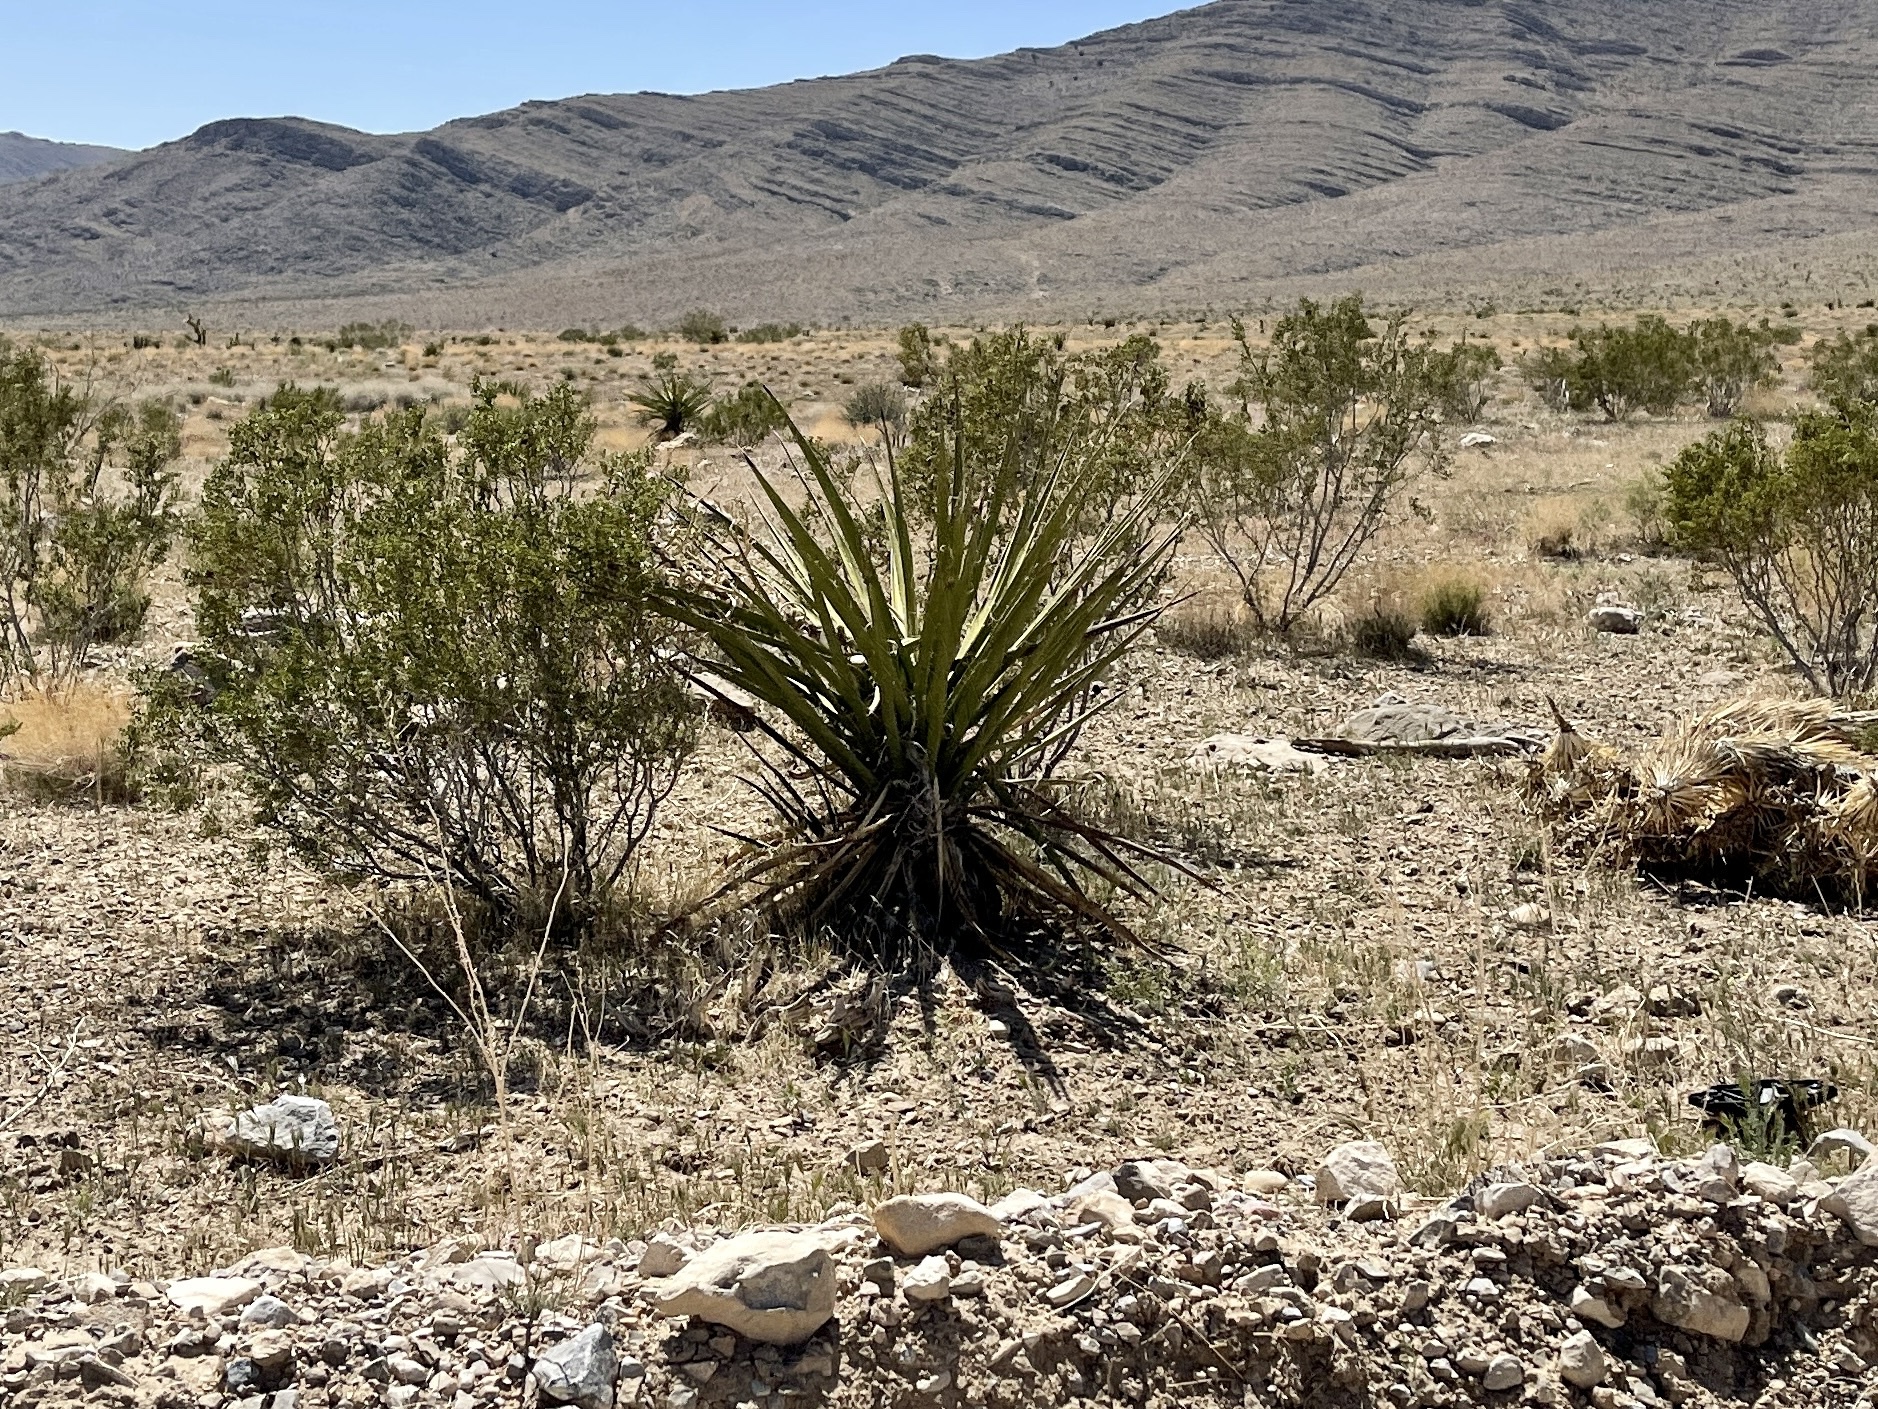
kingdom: Plantae
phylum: Tracheophyta
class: Liliopsida
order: Asparagales
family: Asparagaceae
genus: Yucca
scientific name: Yucca schidigera
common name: Mojave yucca
